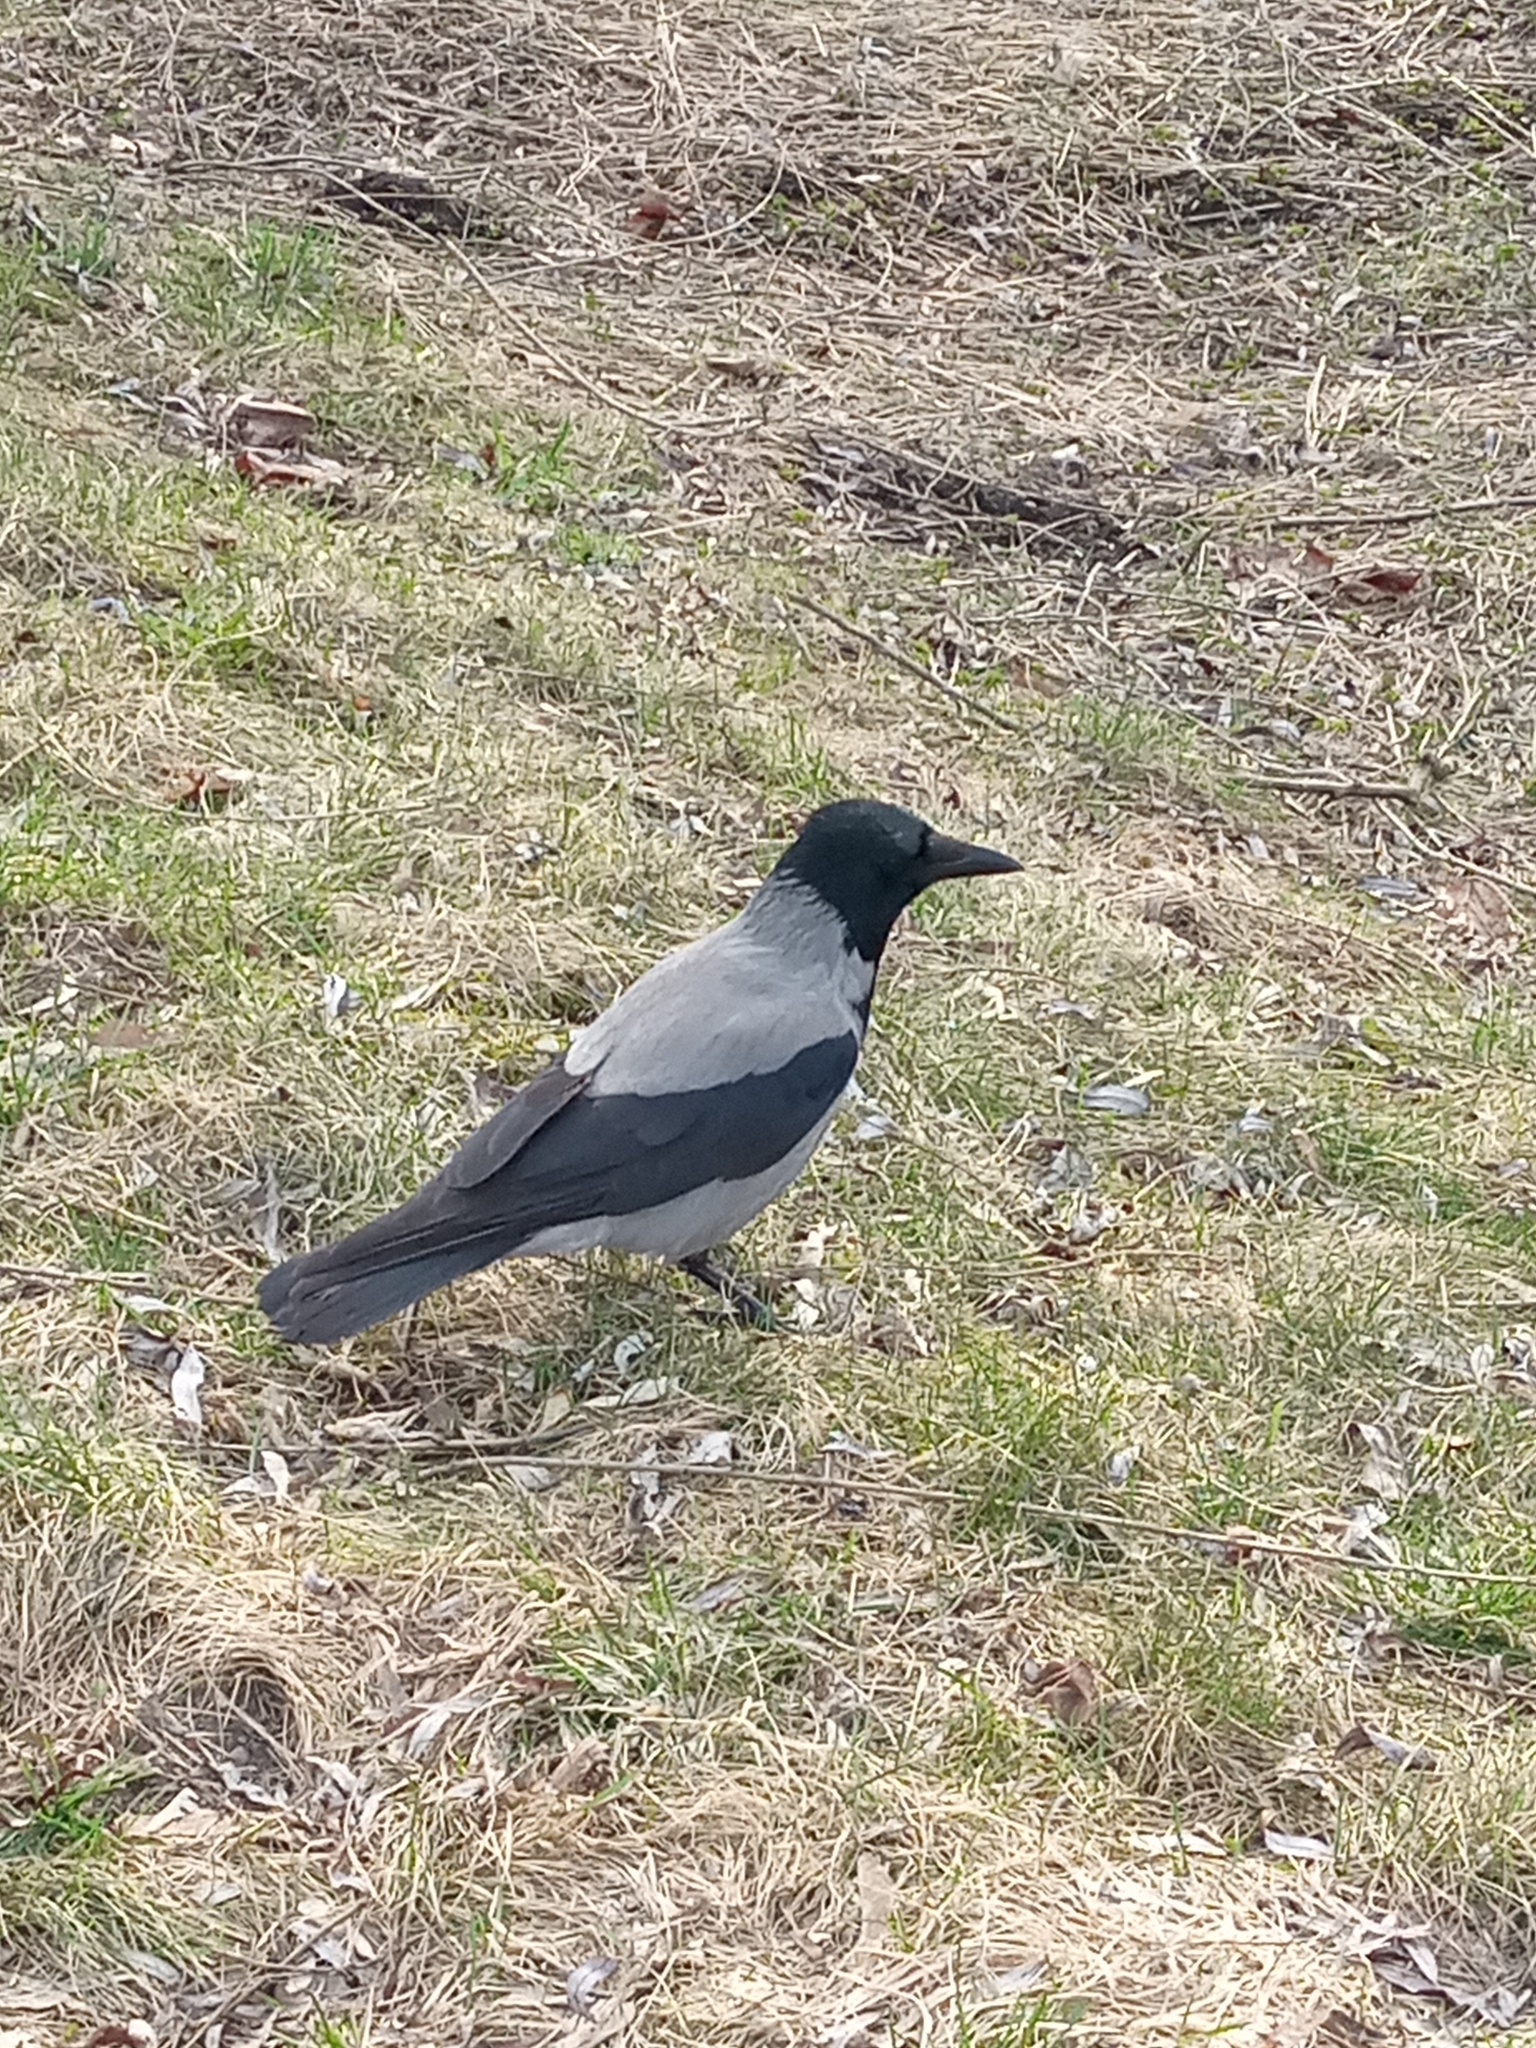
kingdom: Animalia
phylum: Chordata
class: Aves
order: Passeriformes
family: Corvidae
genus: Corvus
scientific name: Corvus cornix
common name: Hooded crow
